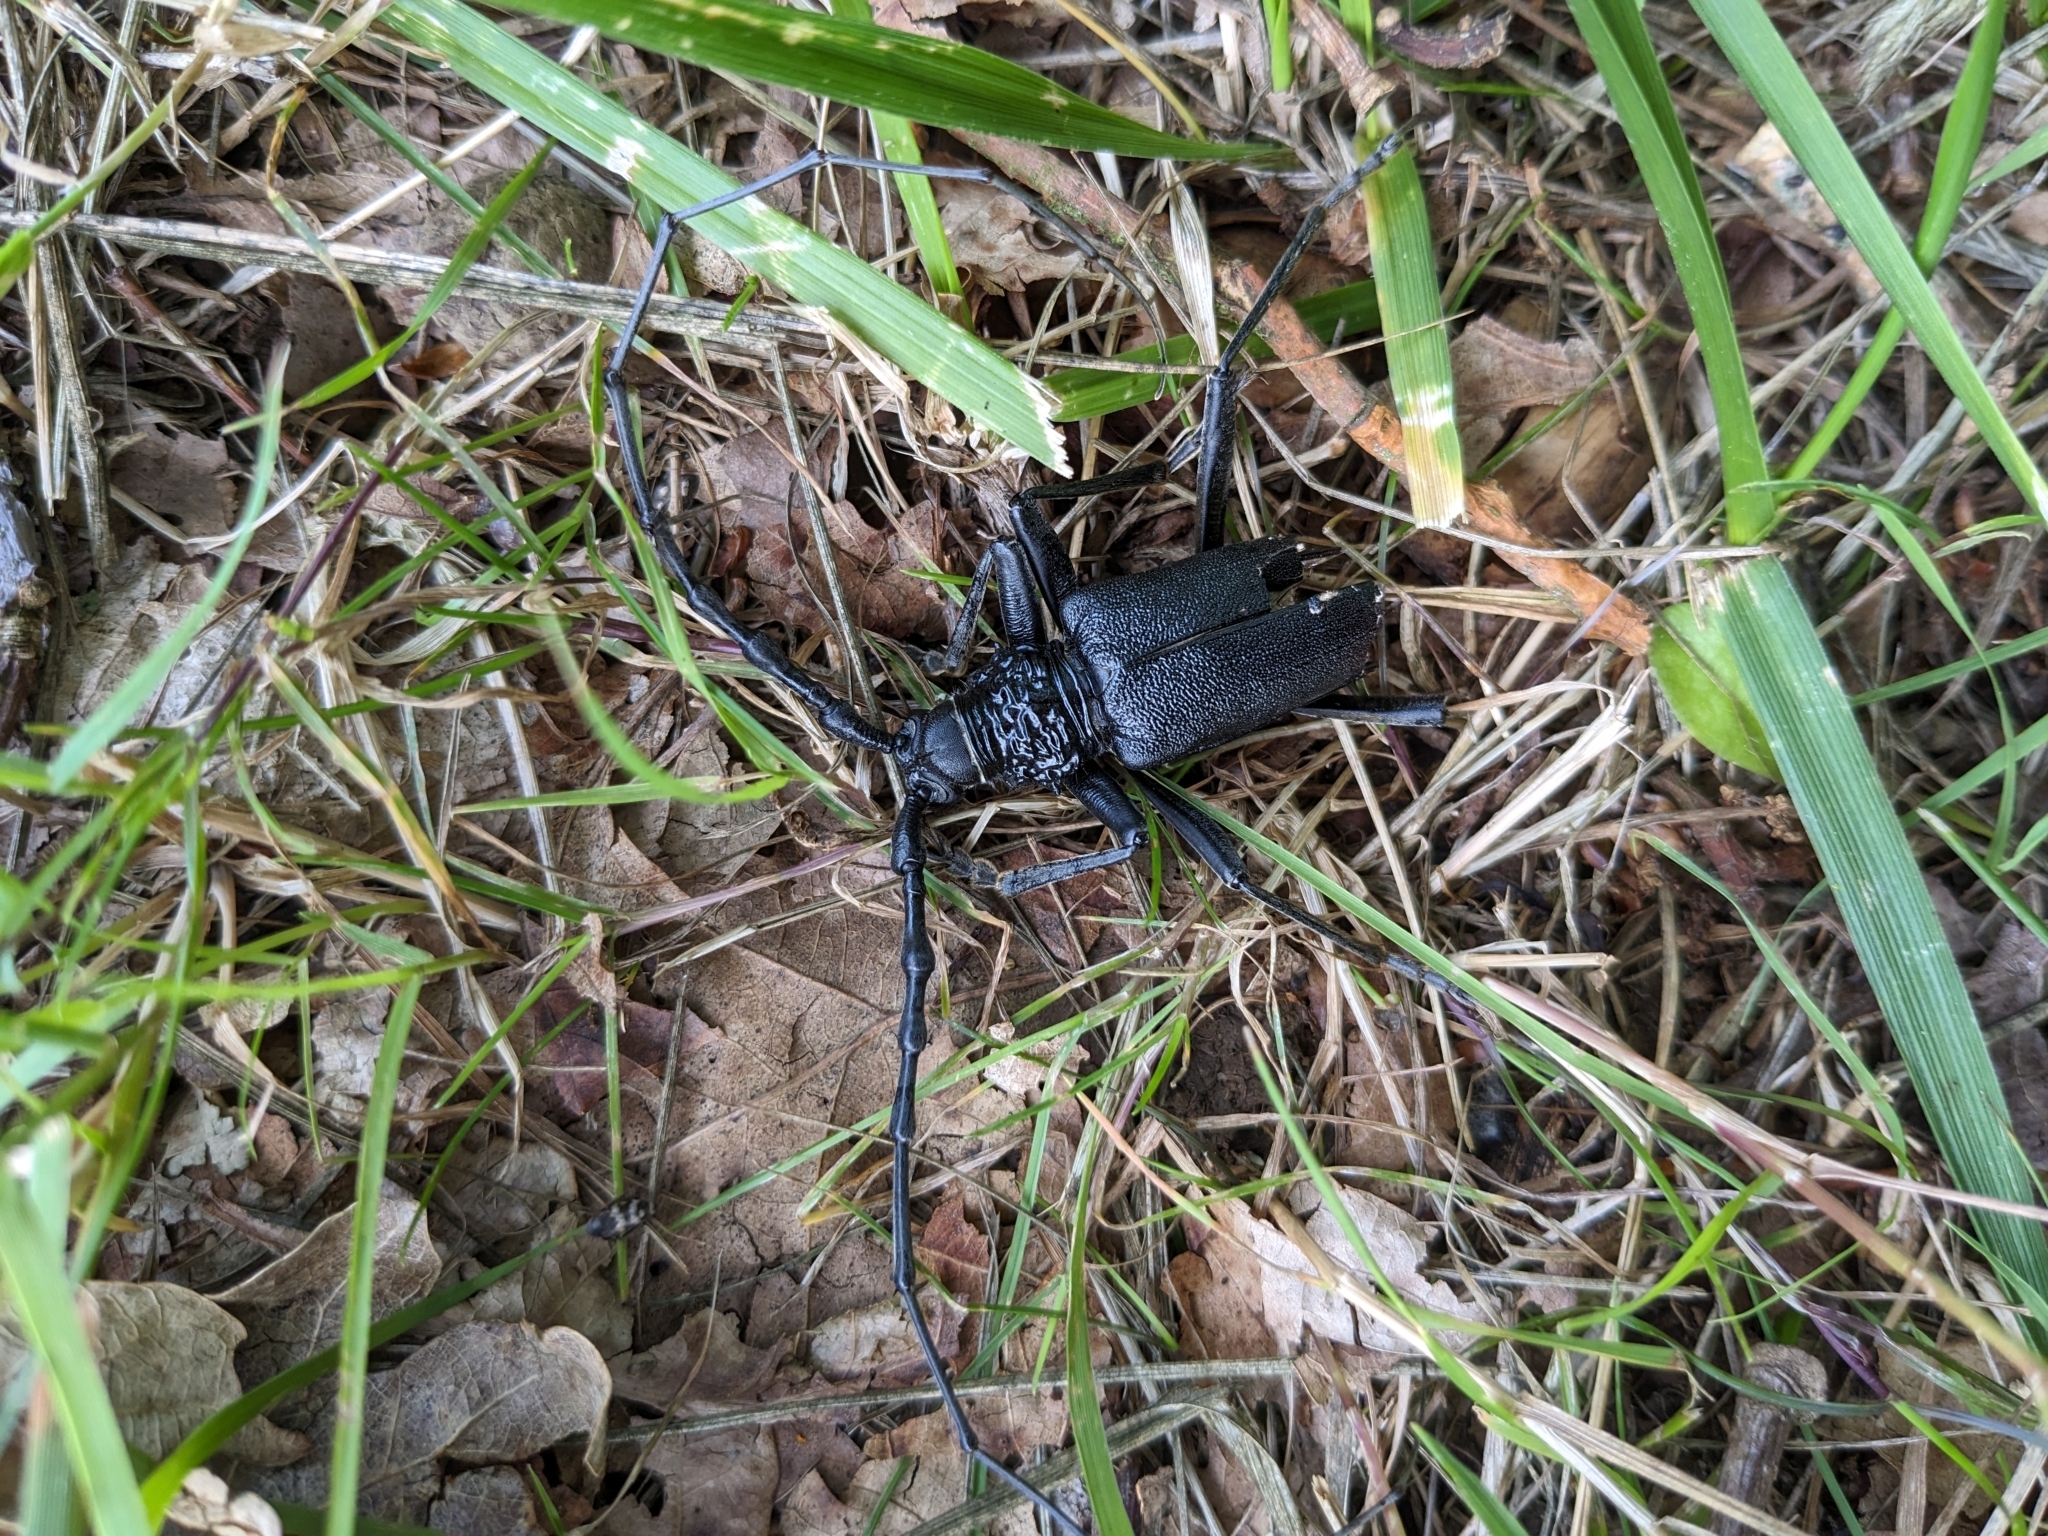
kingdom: Animalia
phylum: Arthropoda
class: Insecta
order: Coleoptera
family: Cerambycidae
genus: Cerambyx
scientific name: Cerambyx cerdo
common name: Cerambyx longicorn
